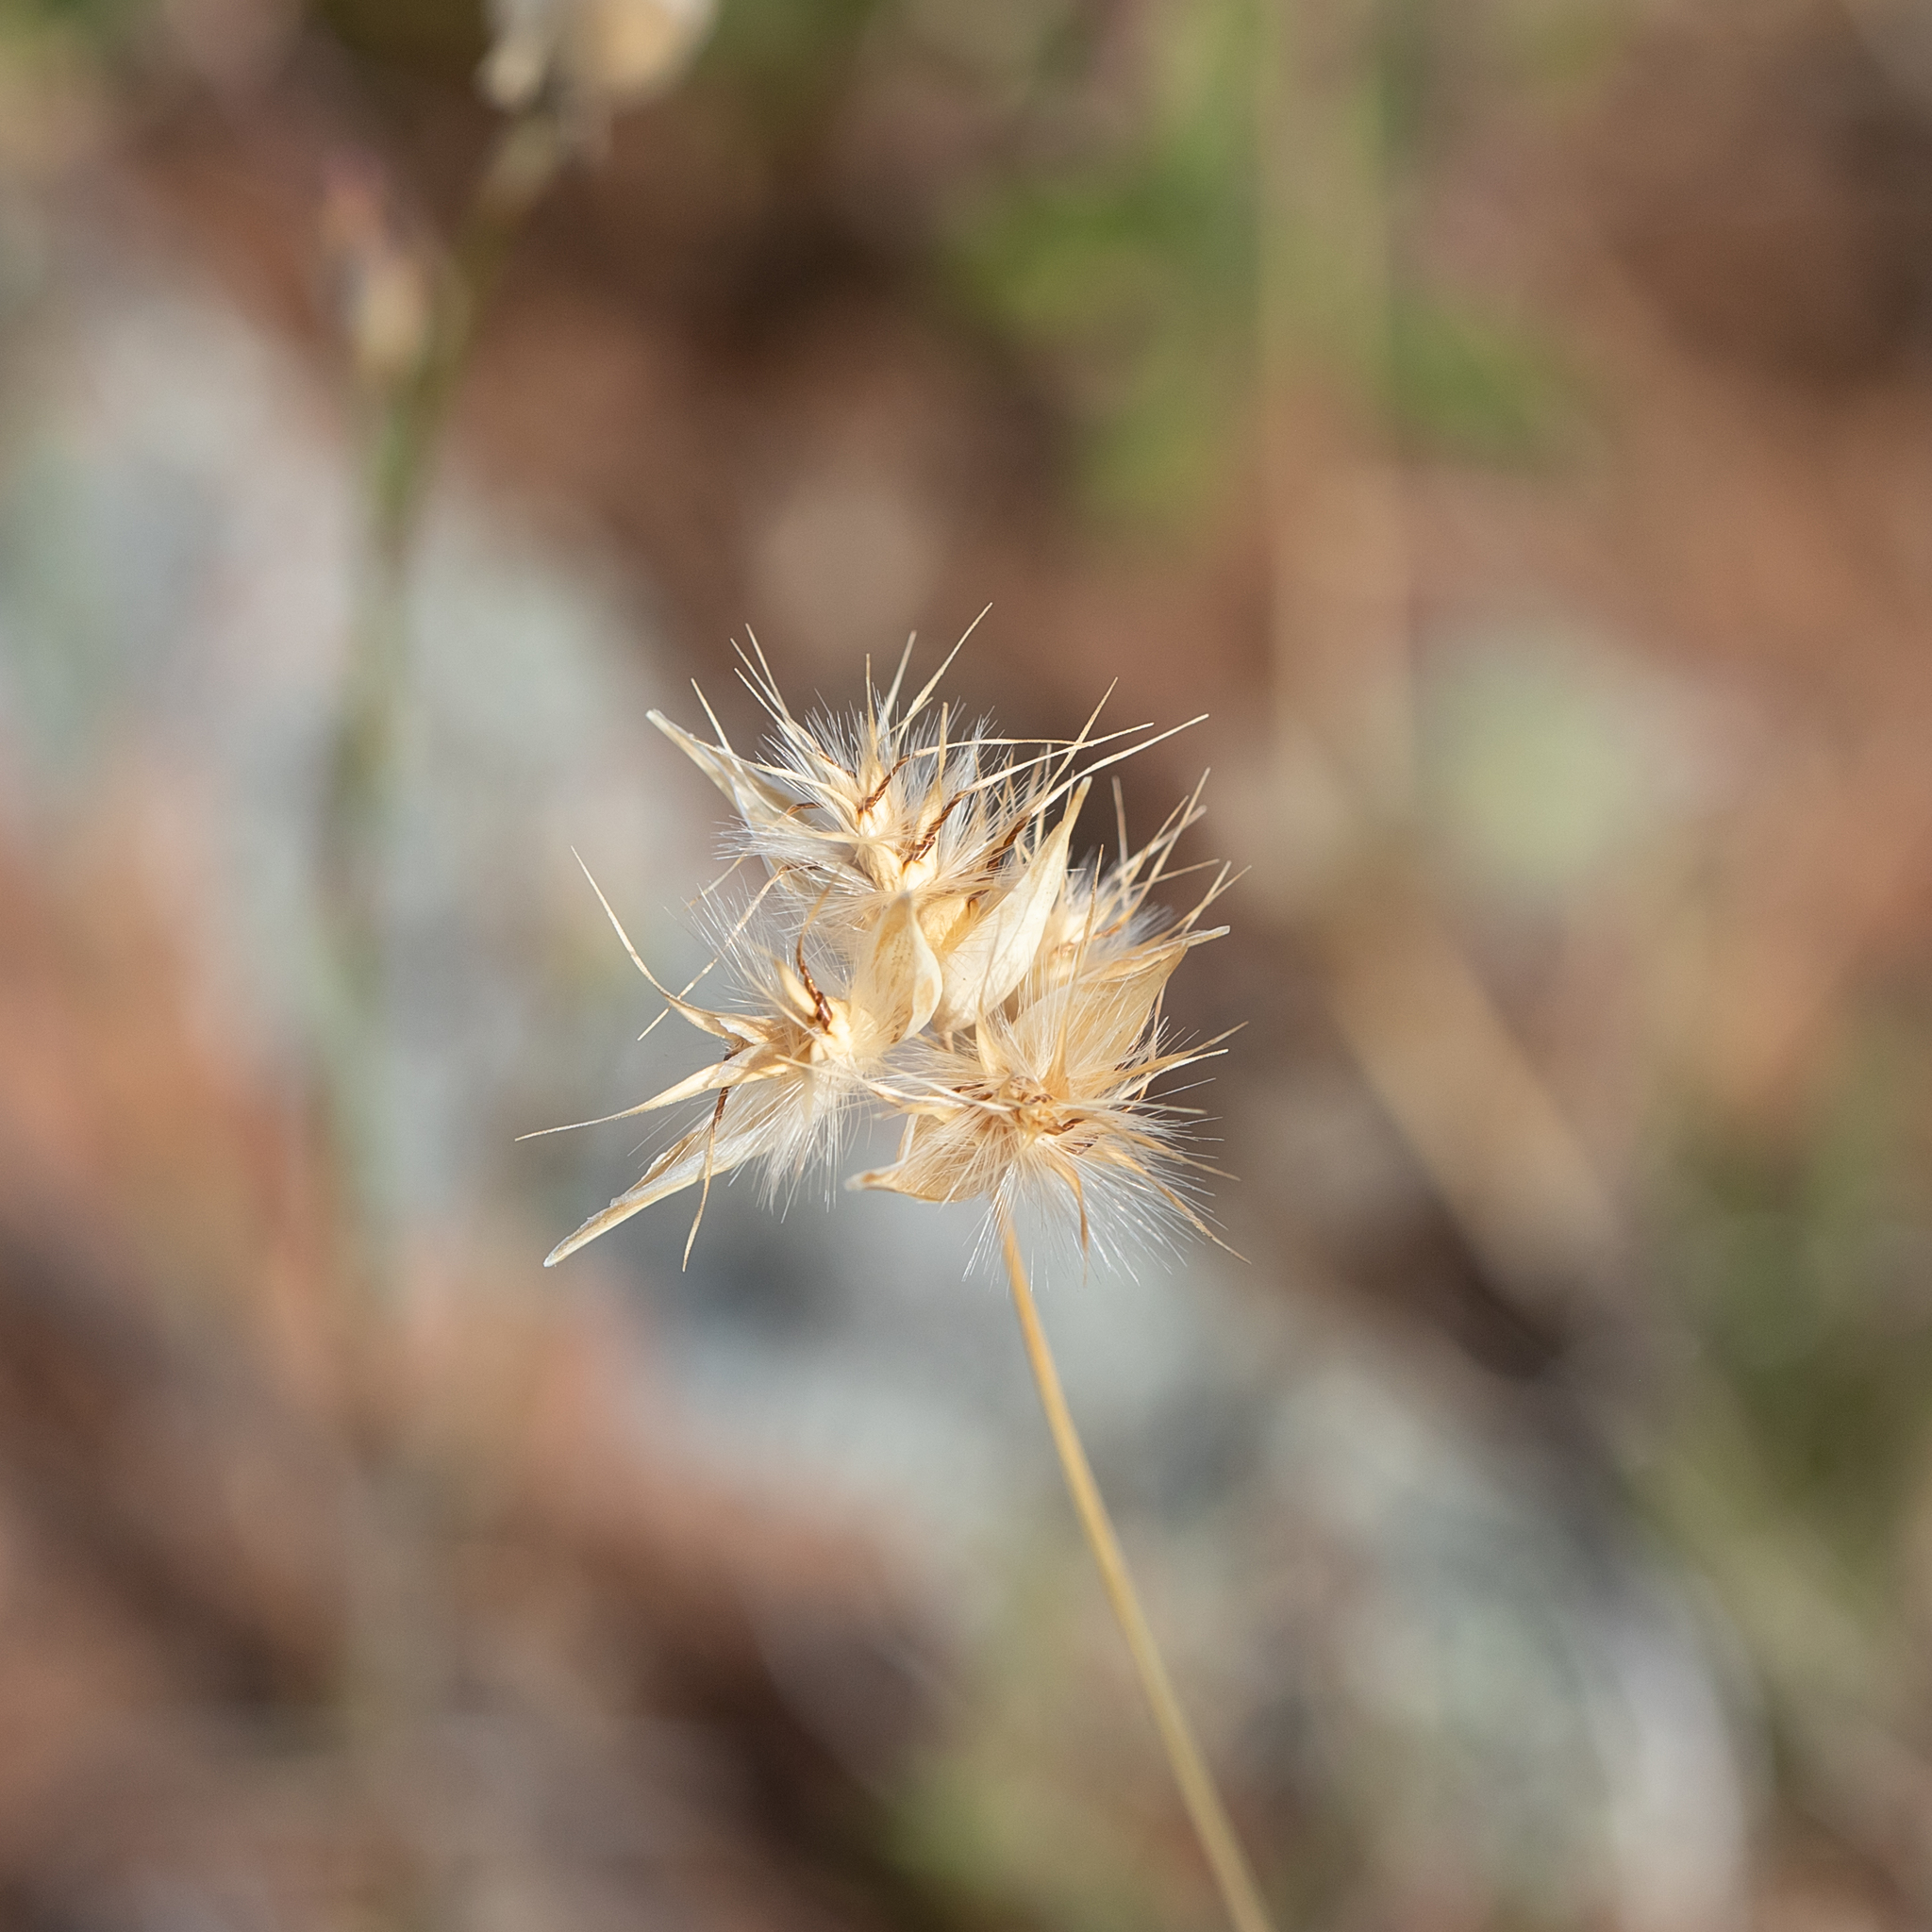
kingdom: Plantae
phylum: Tracheophyta
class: Liliopsida
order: Poales
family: Poaceae
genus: Rytidosperma
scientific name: Rytidosperma auriculatum
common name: Lobed wallaby grass
